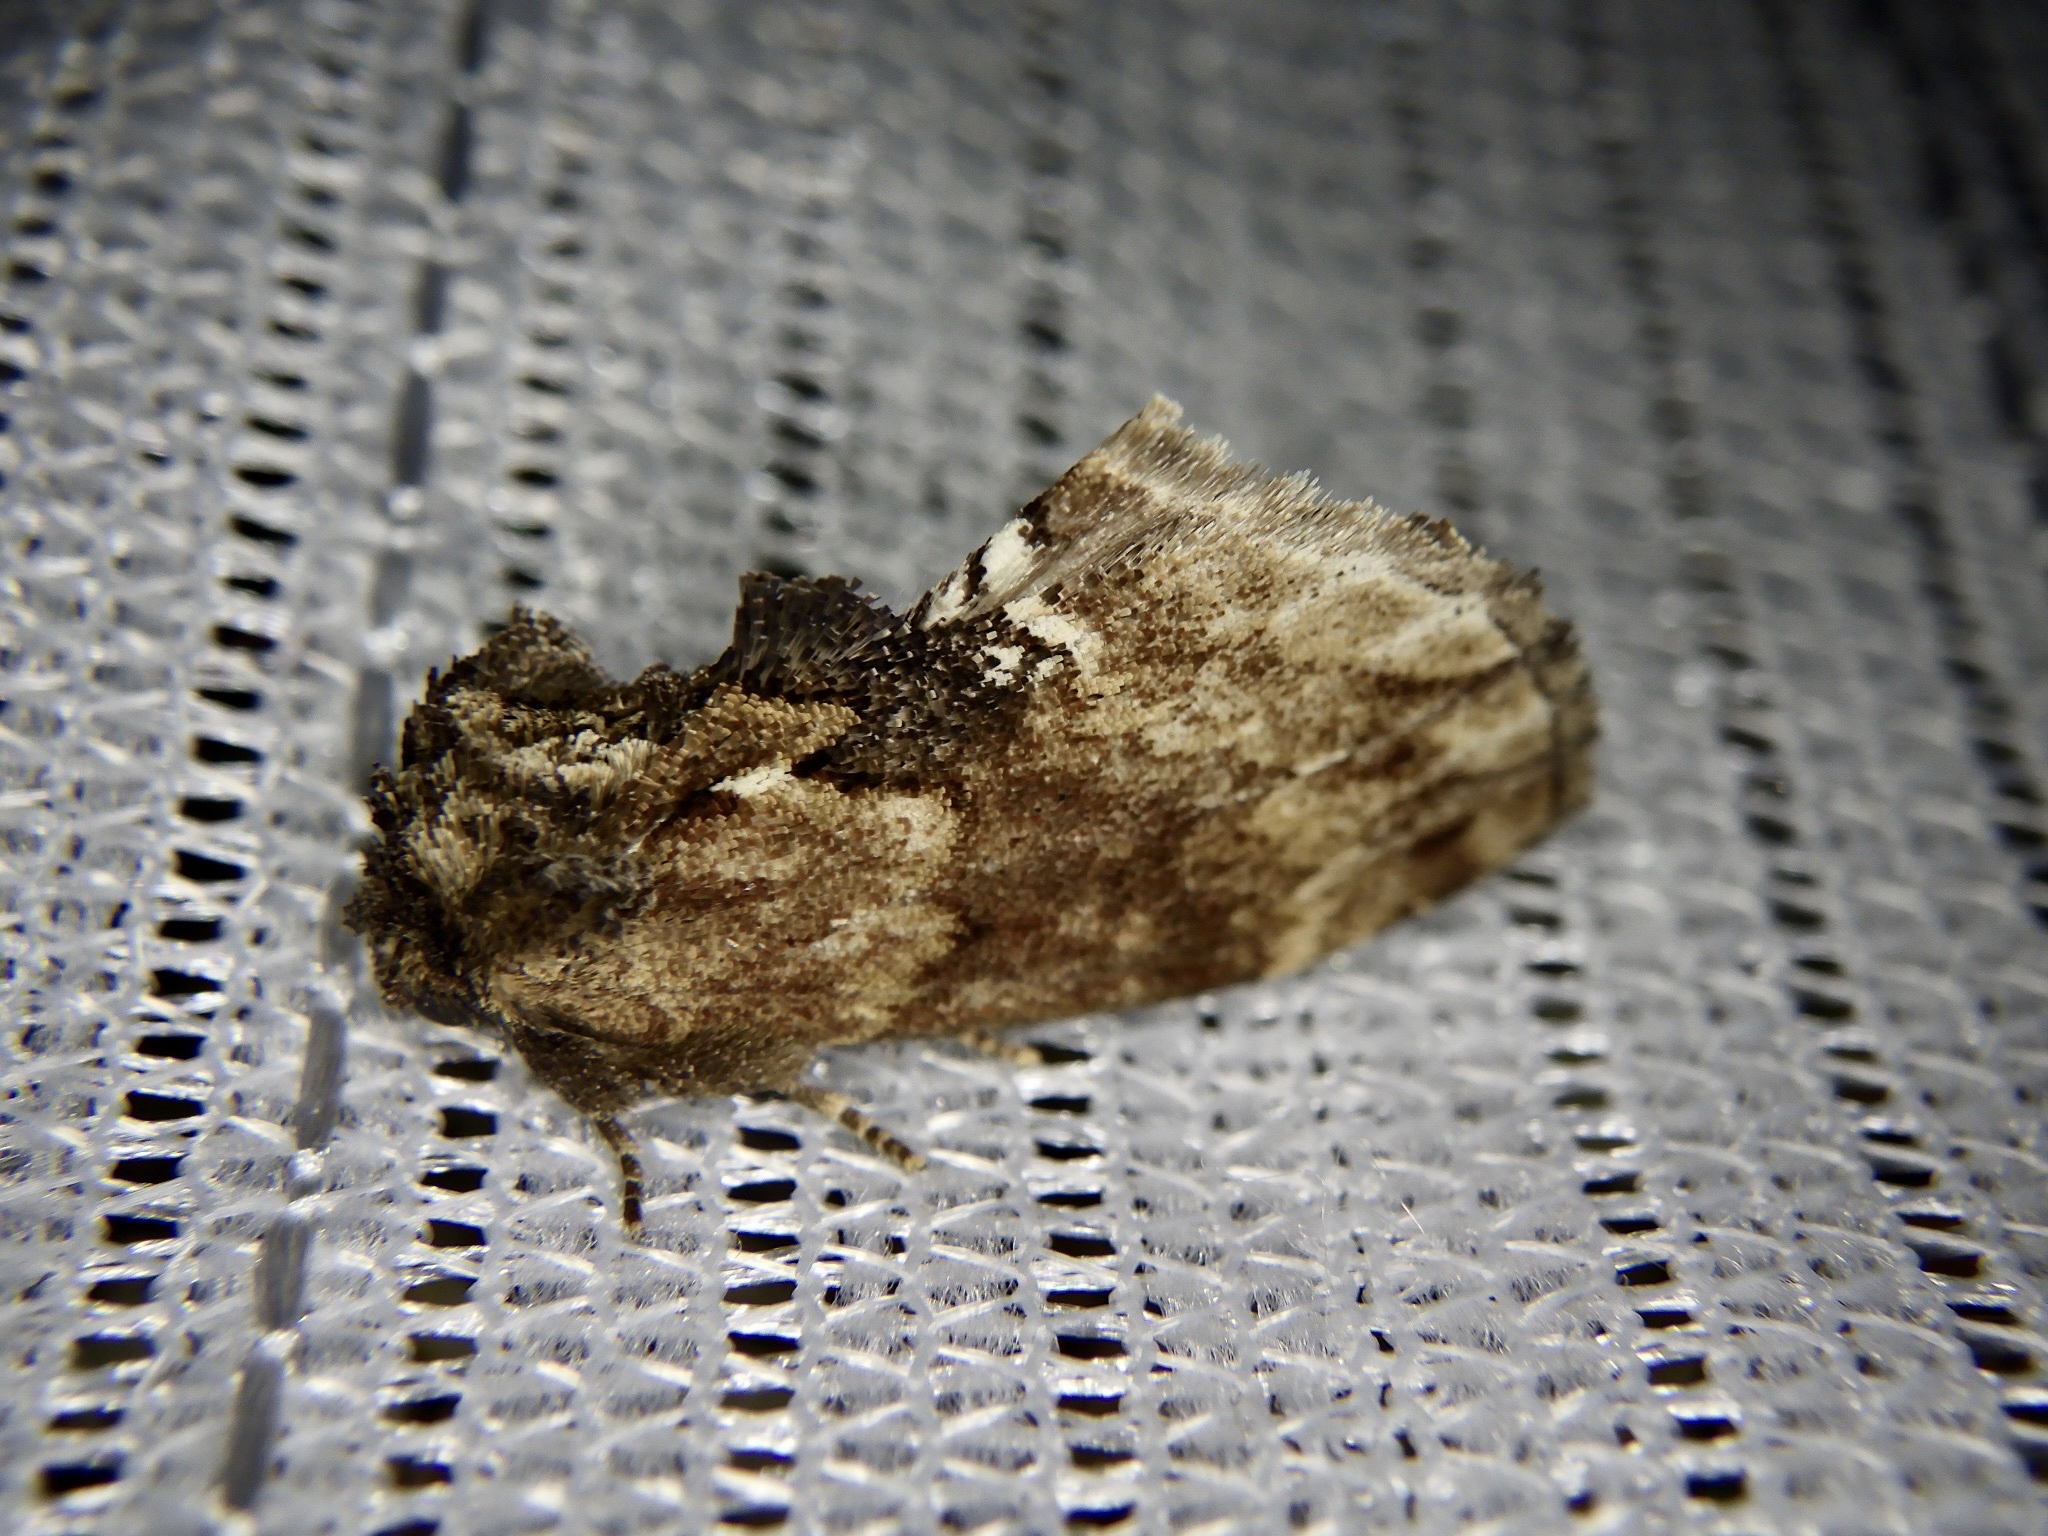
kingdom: Animalia
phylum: Arthropoda
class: Insecta
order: Lepidoptera
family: Notodontidae
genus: Lophontosia
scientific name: Lophontosia
